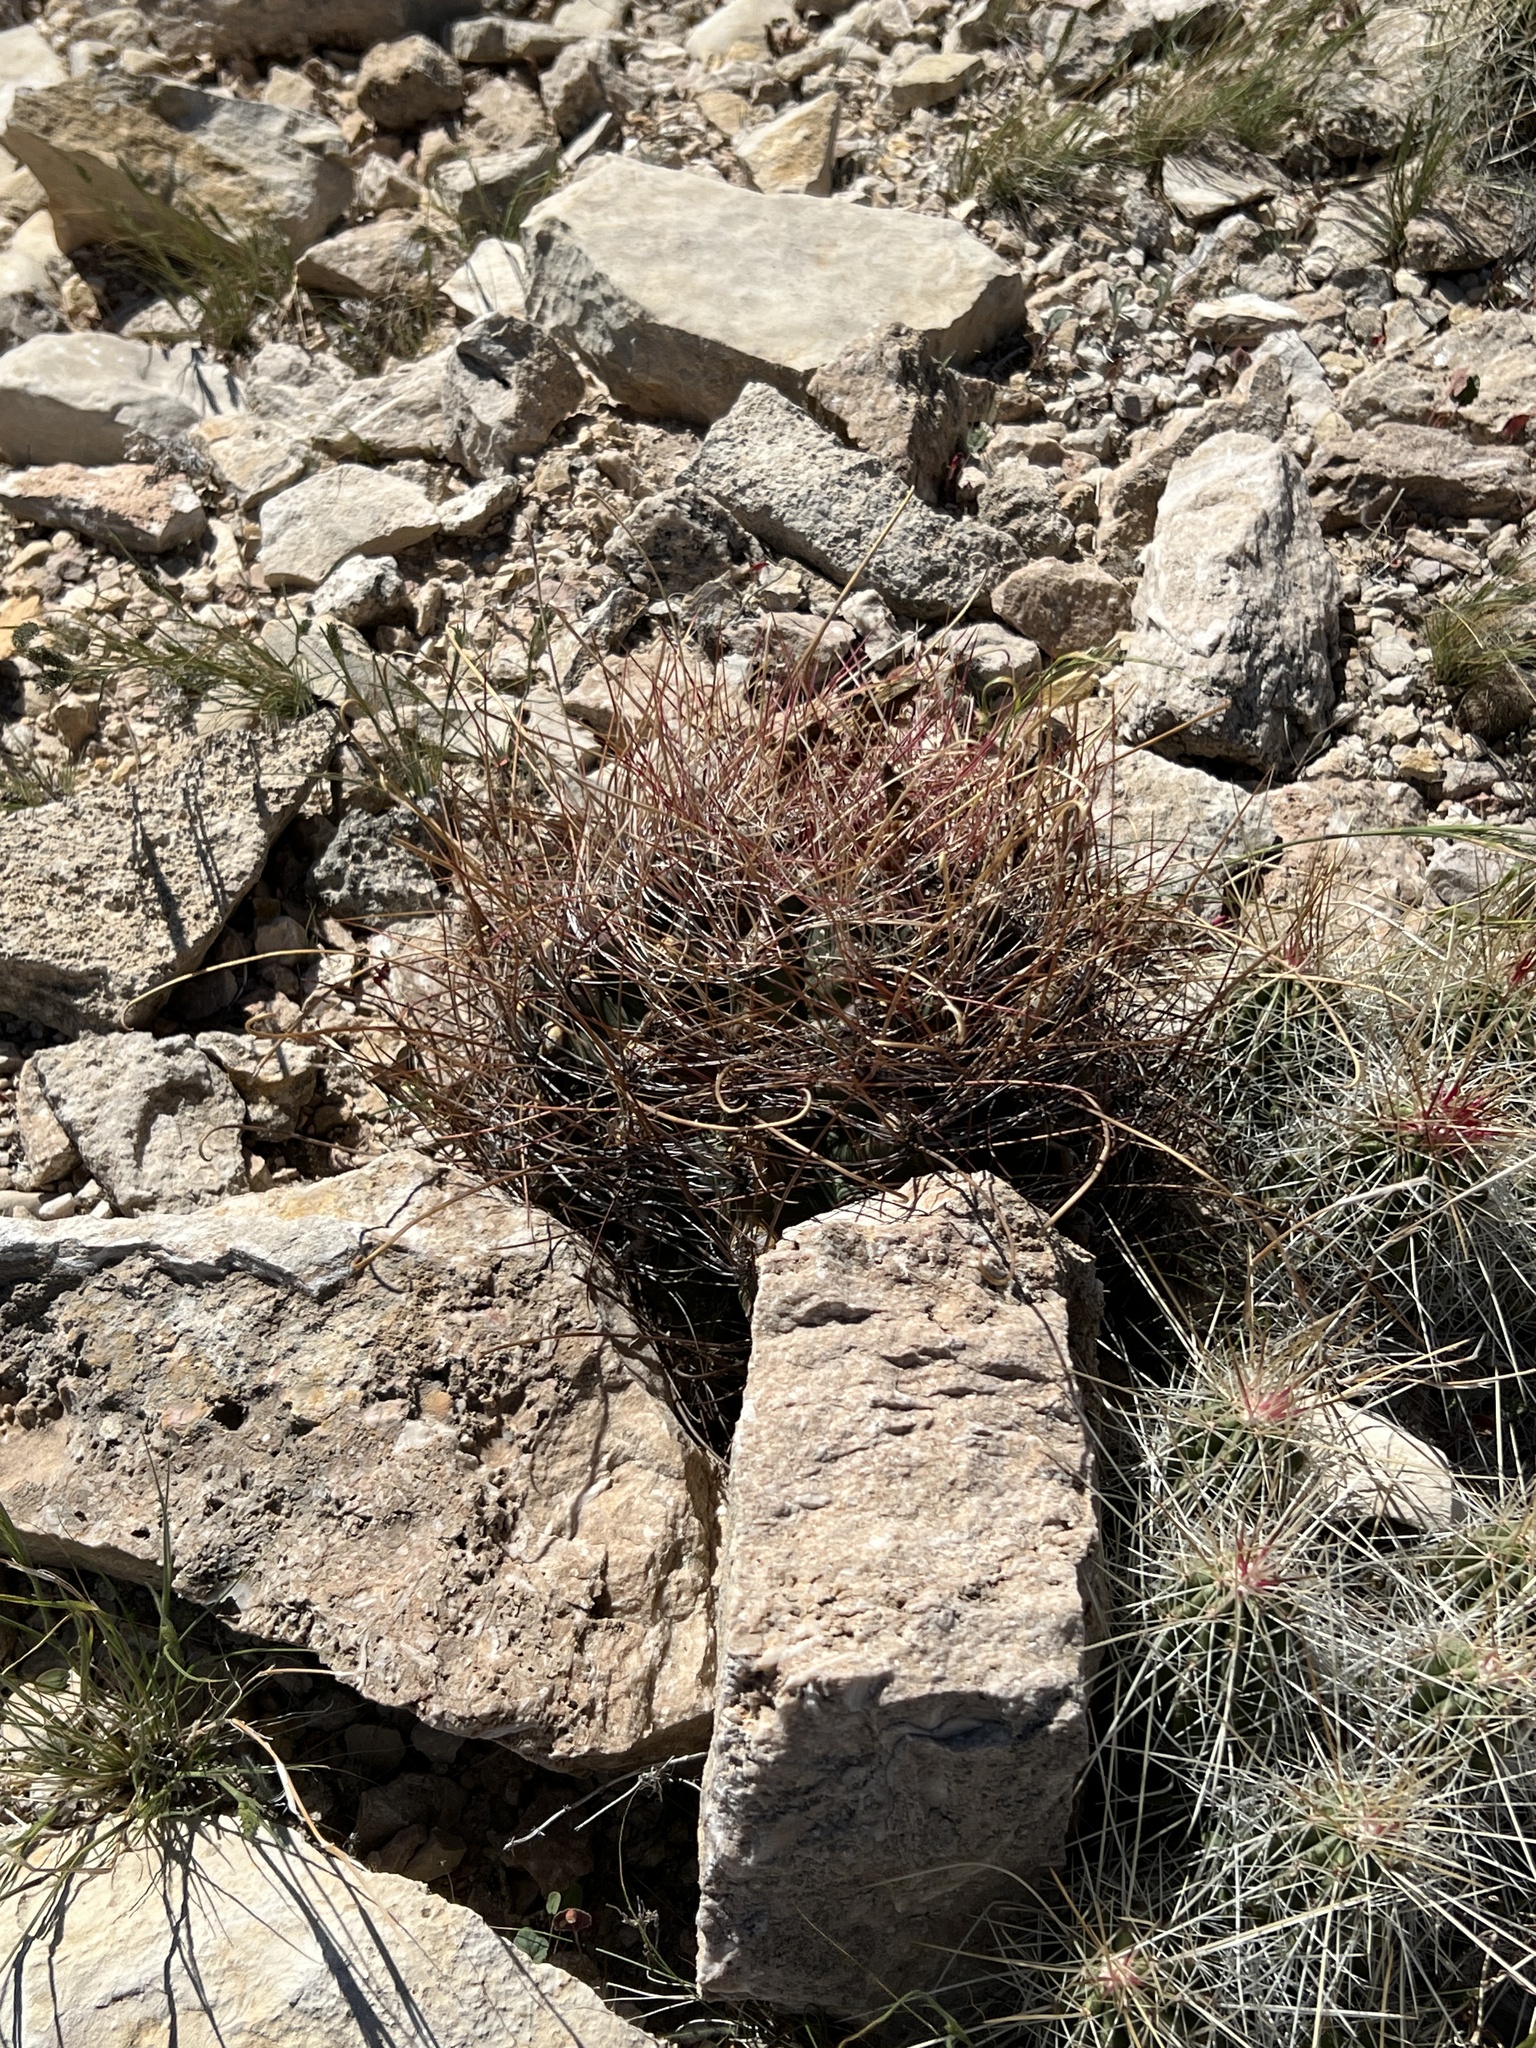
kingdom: Plantae
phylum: Tracheophyta
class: Magnoliopsida
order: Caryophyllales
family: Cactaceae
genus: Bisnaga
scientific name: Bisnaga hamatacantha
